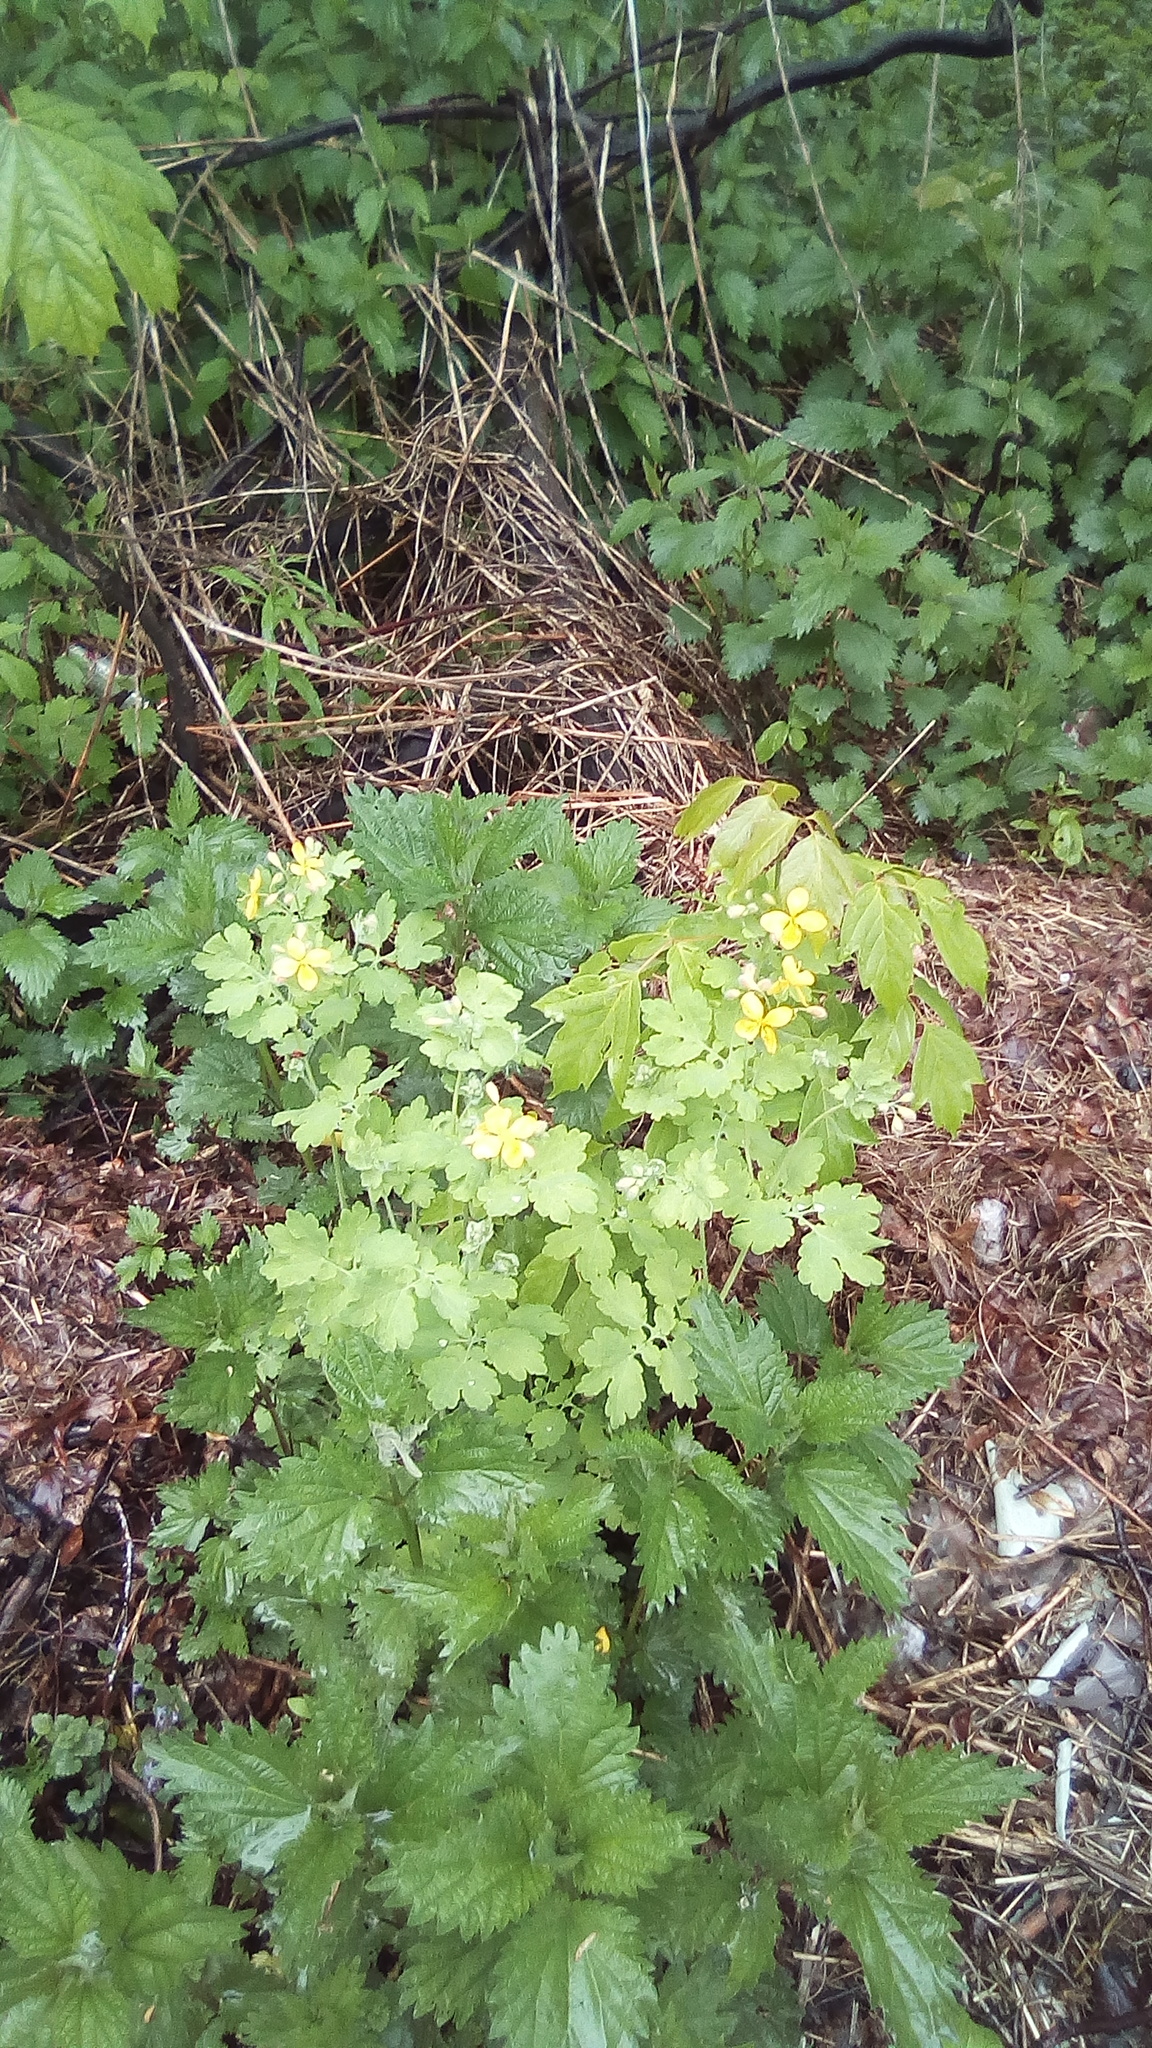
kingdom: Plantae
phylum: Tracheophyta
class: Magnoliopsida
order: Ranunculales
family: Papaveraceae
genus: Chelidonium
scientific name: Chelidonium majus
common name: Greater celandine
